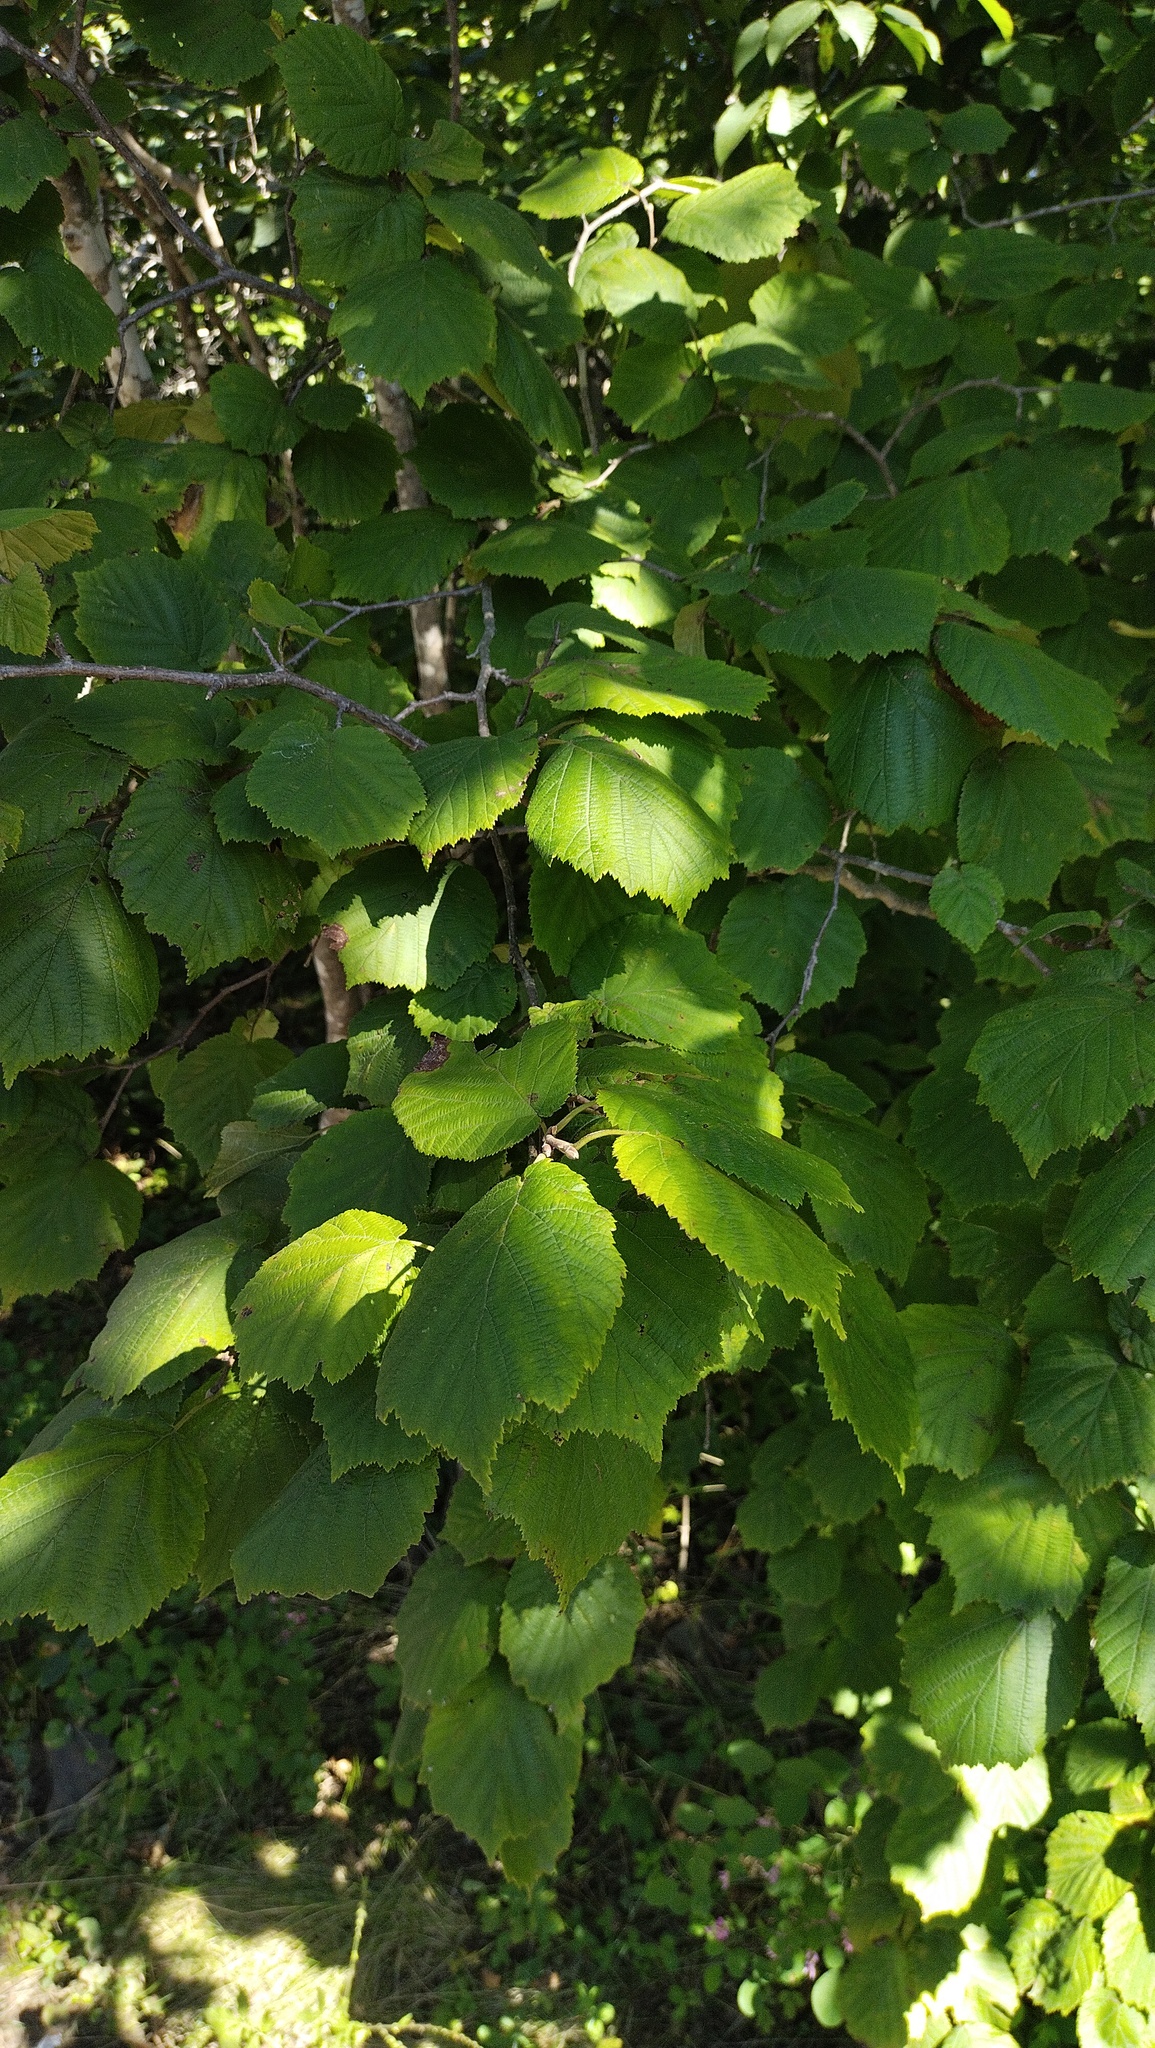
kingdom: Plantae
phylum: Tracheophyta
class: Magnoliopsida
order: Fagales
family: Betulaceae
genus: Corylus
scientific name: Corylus sieboldiana
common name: Japanese hazel
